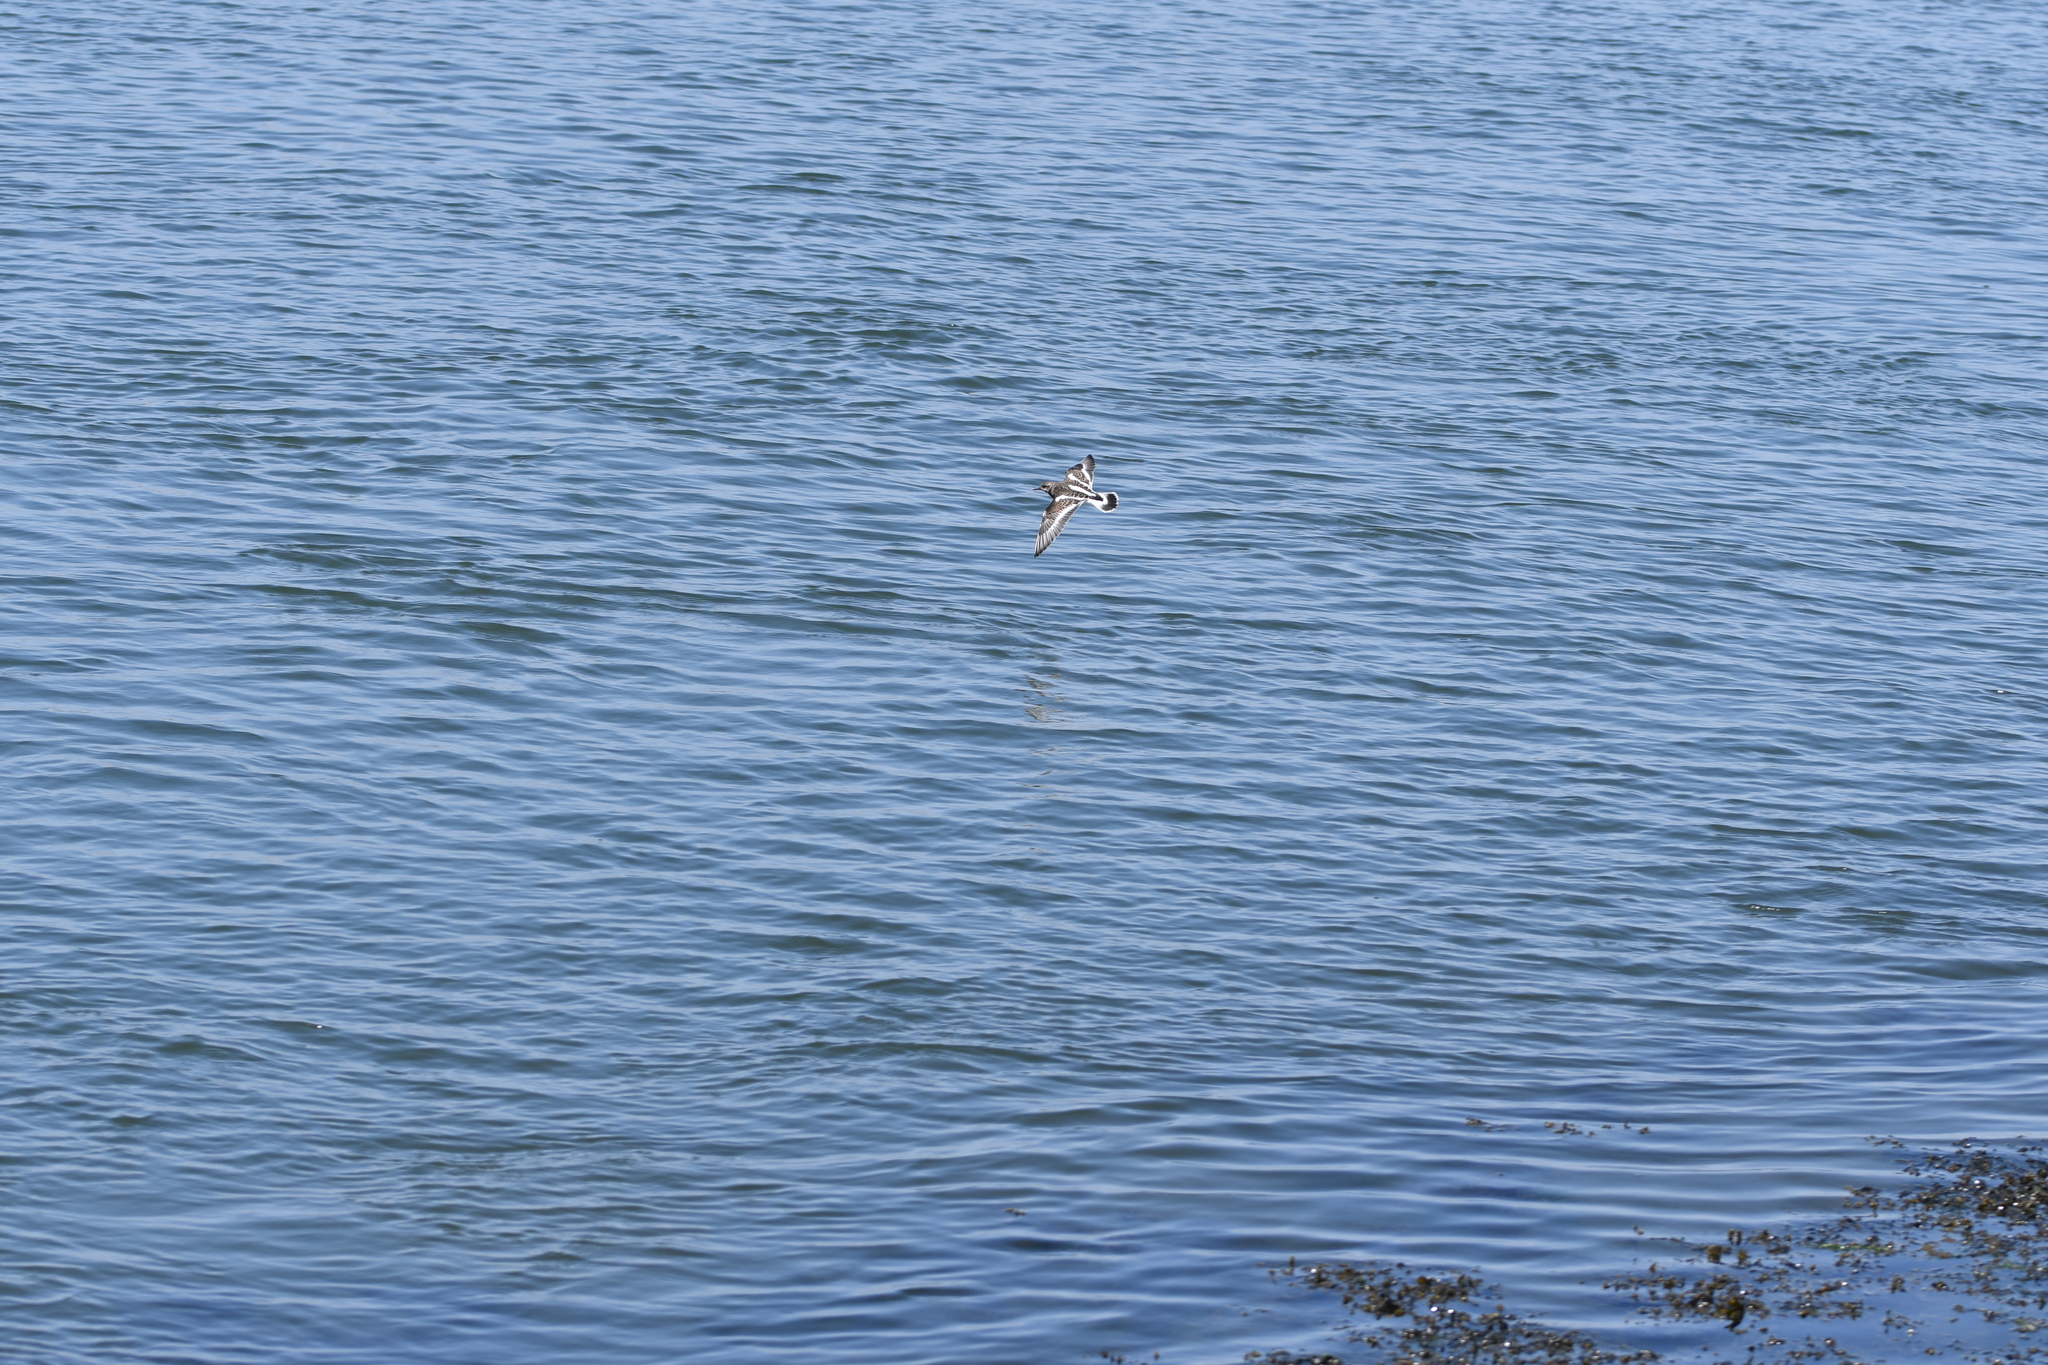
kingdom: Animalia
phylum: Chordata
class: Aves
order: Charadriiformes
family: Scolopacidae
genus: Arenaria
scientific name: Arenaria interpres
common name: Ruddy turnstone
